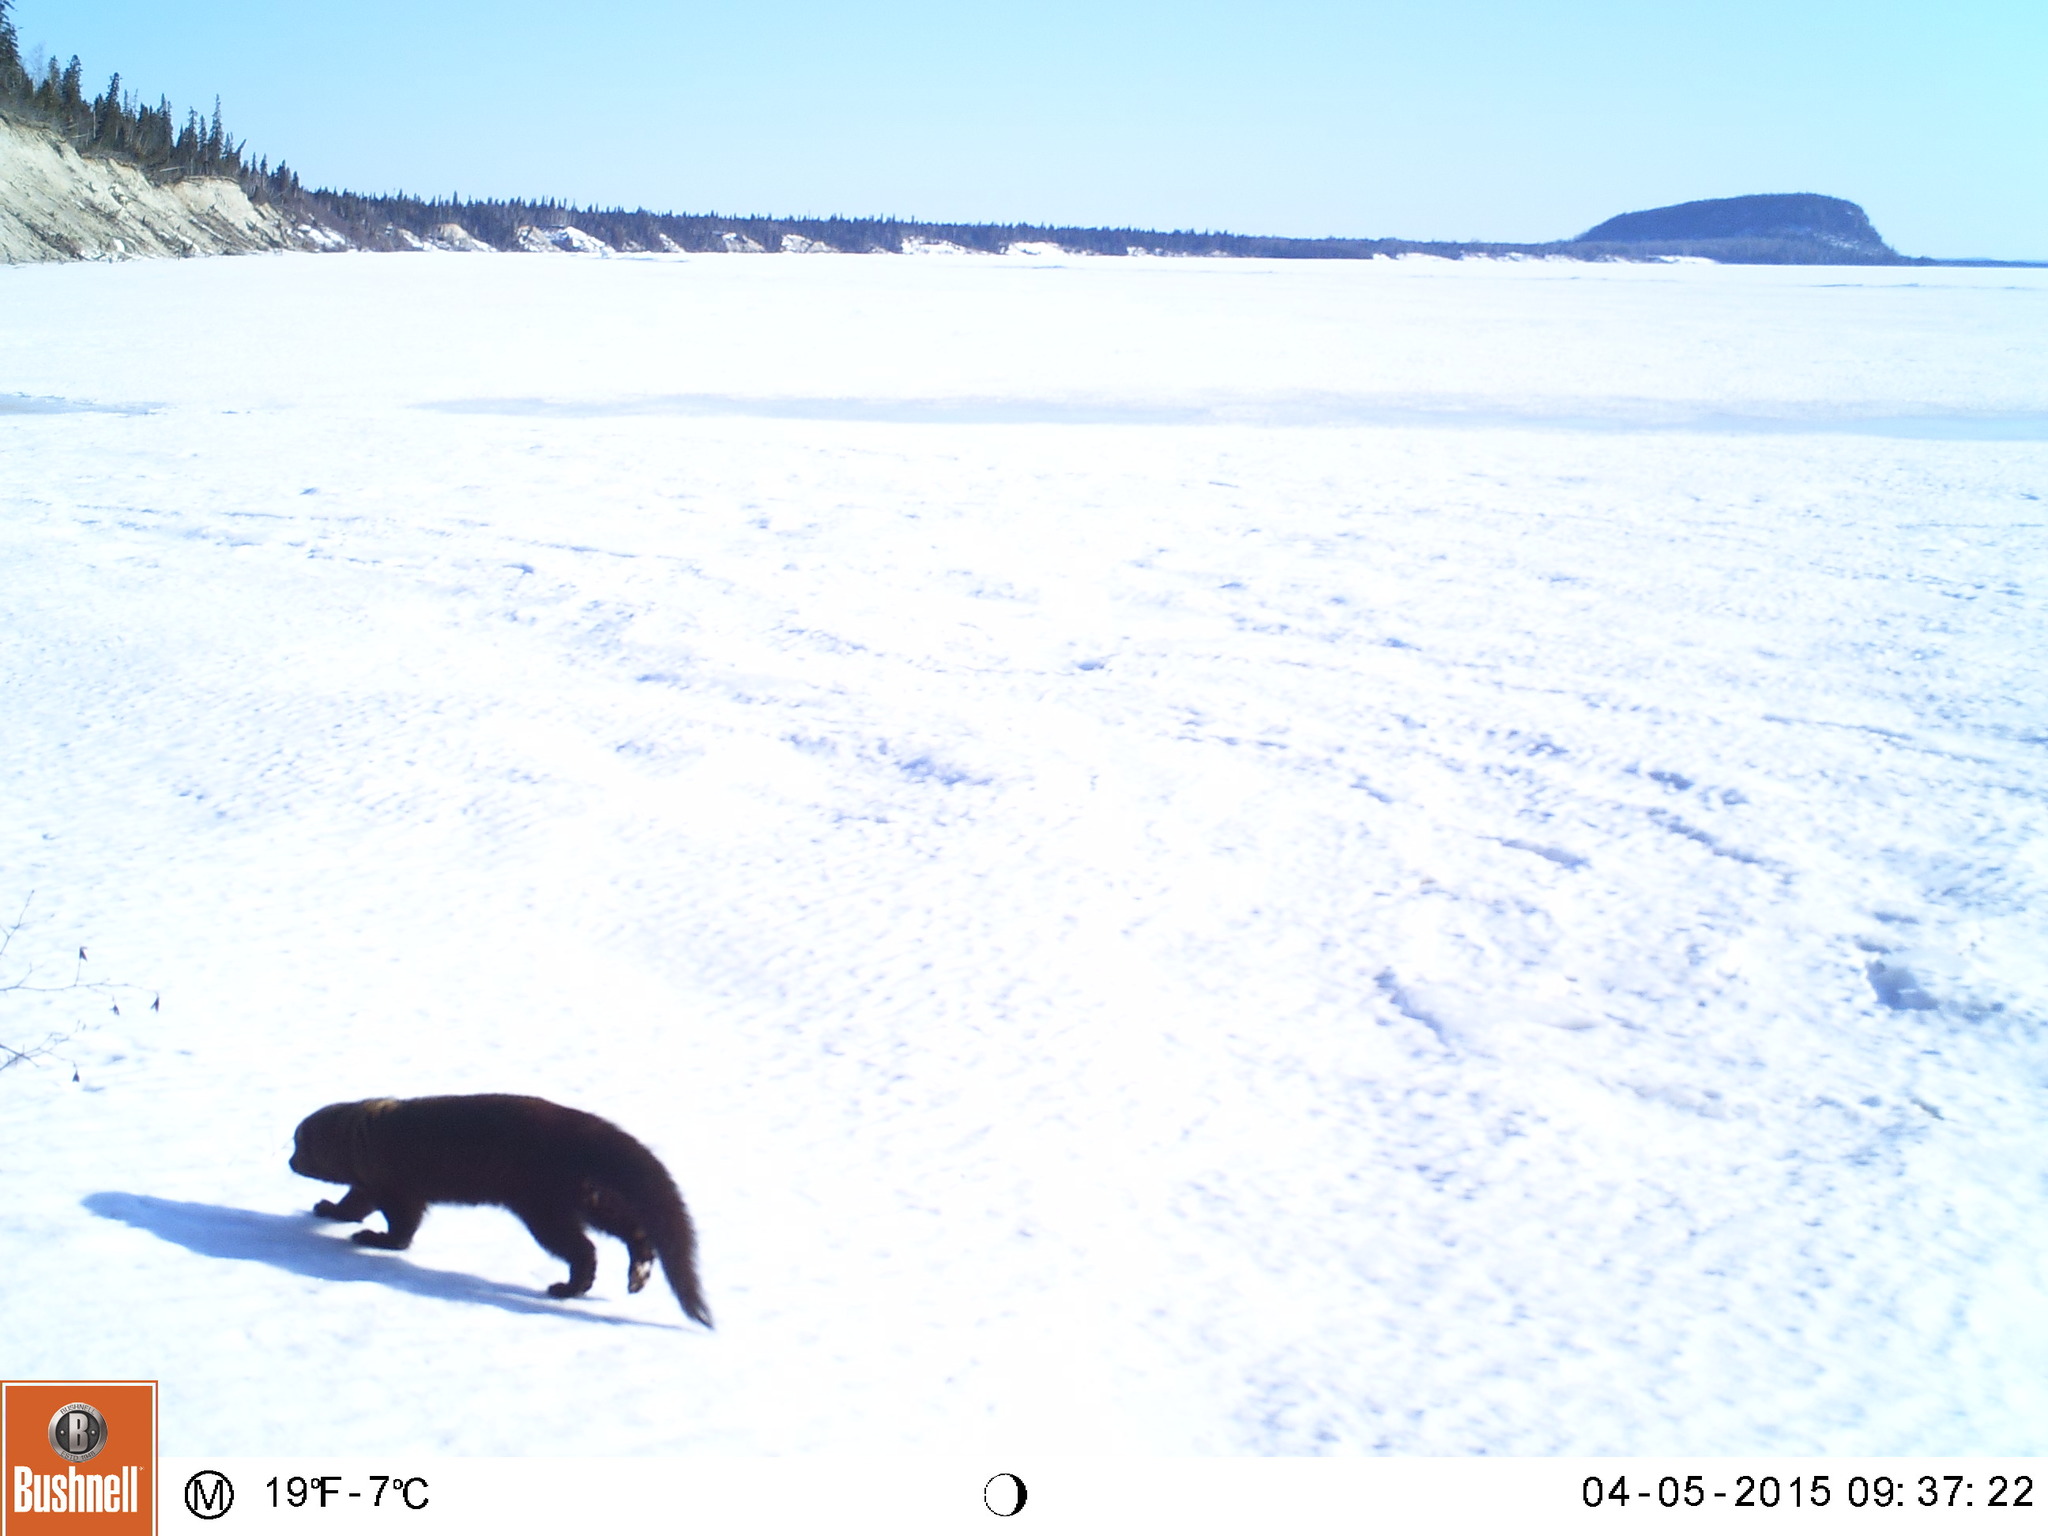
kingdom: Animalia
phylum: Chordata
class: Mammalia
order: Carnivora
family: Mustelidae
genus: Pekania
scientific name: Pekania pennanti
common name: Fisher
